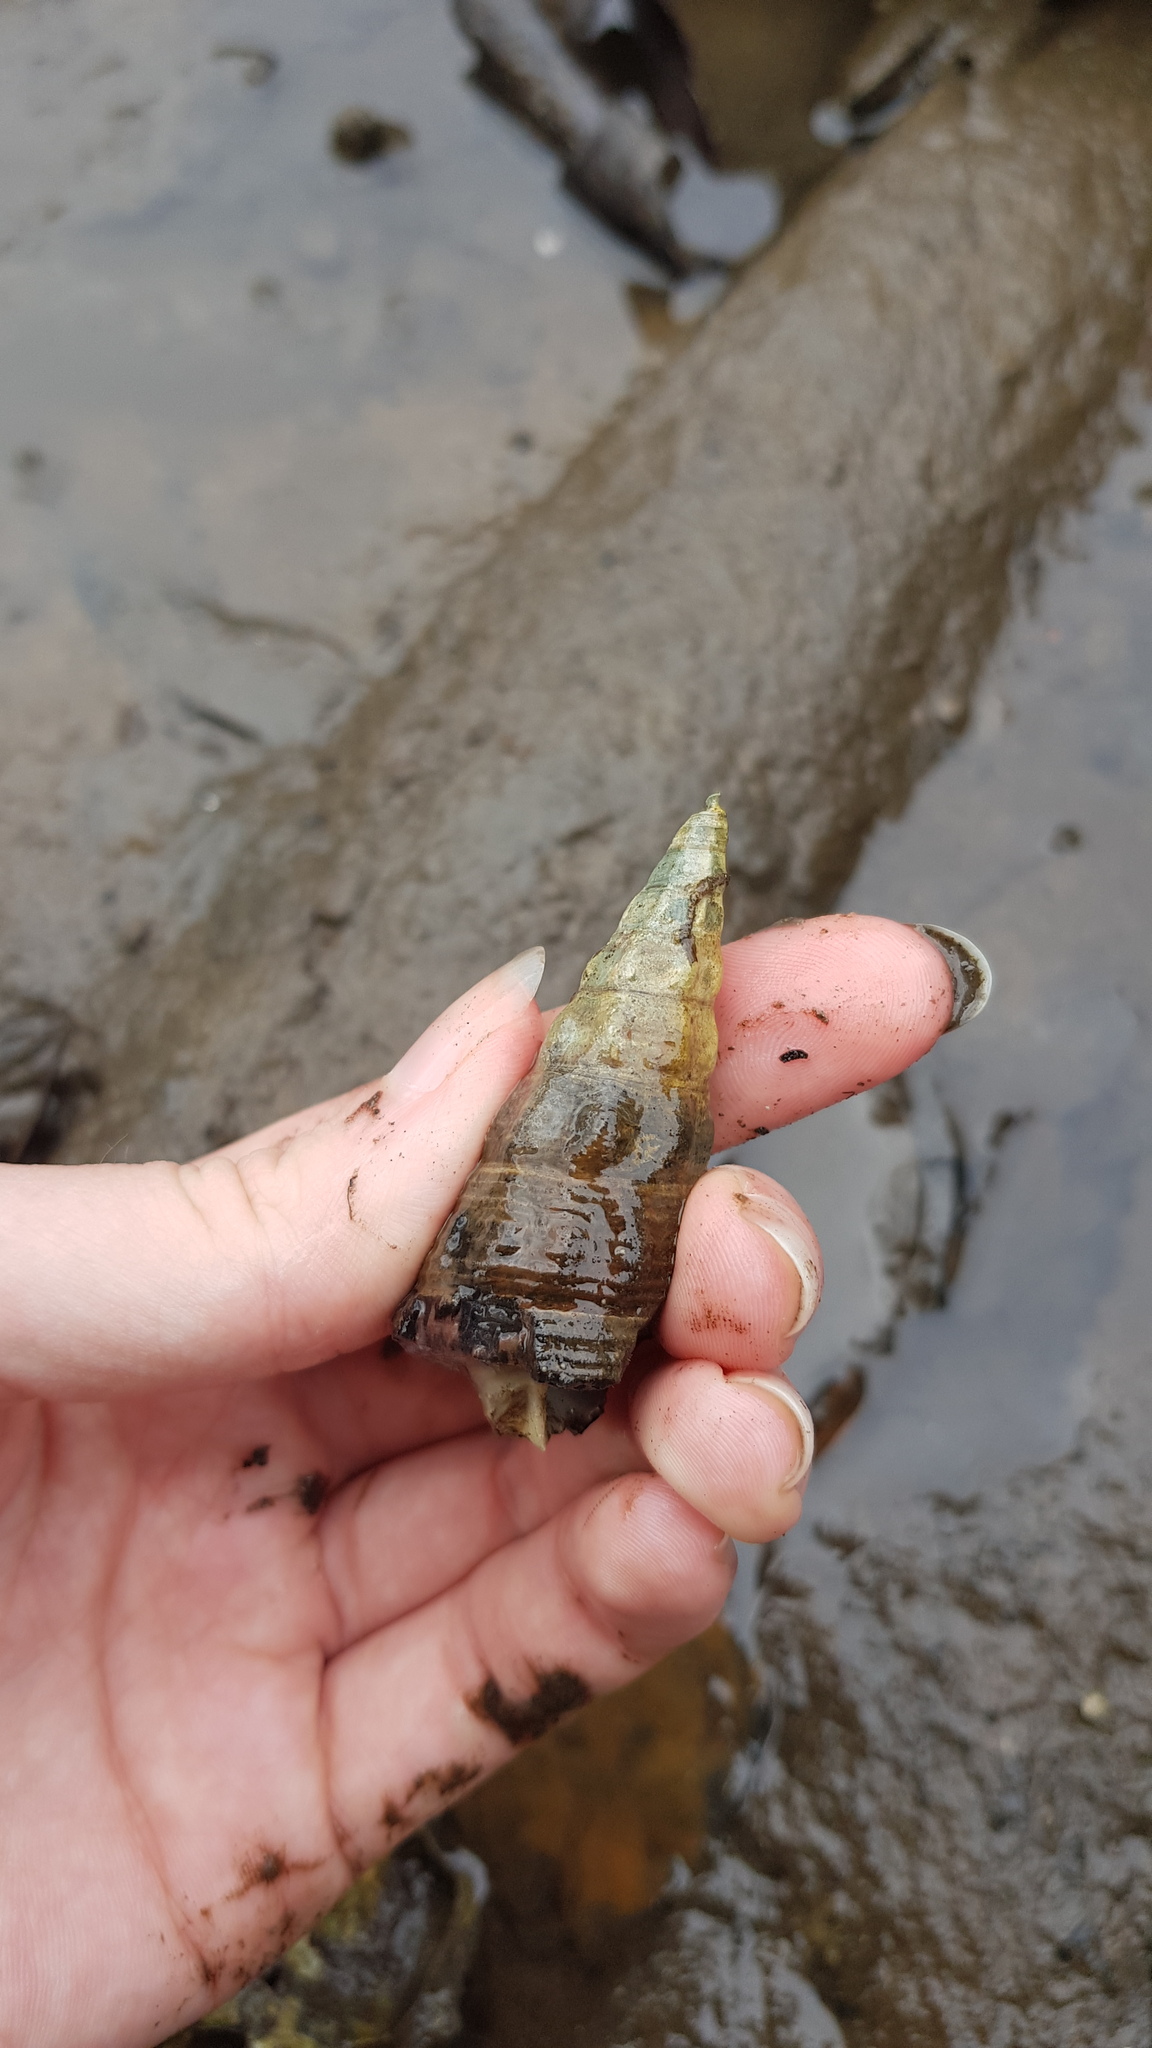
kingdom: Animalia
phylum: Mollusca
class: Gastropoda
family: Batillariidae
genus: Pyrazus
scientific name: Pyrazus ebeninus
